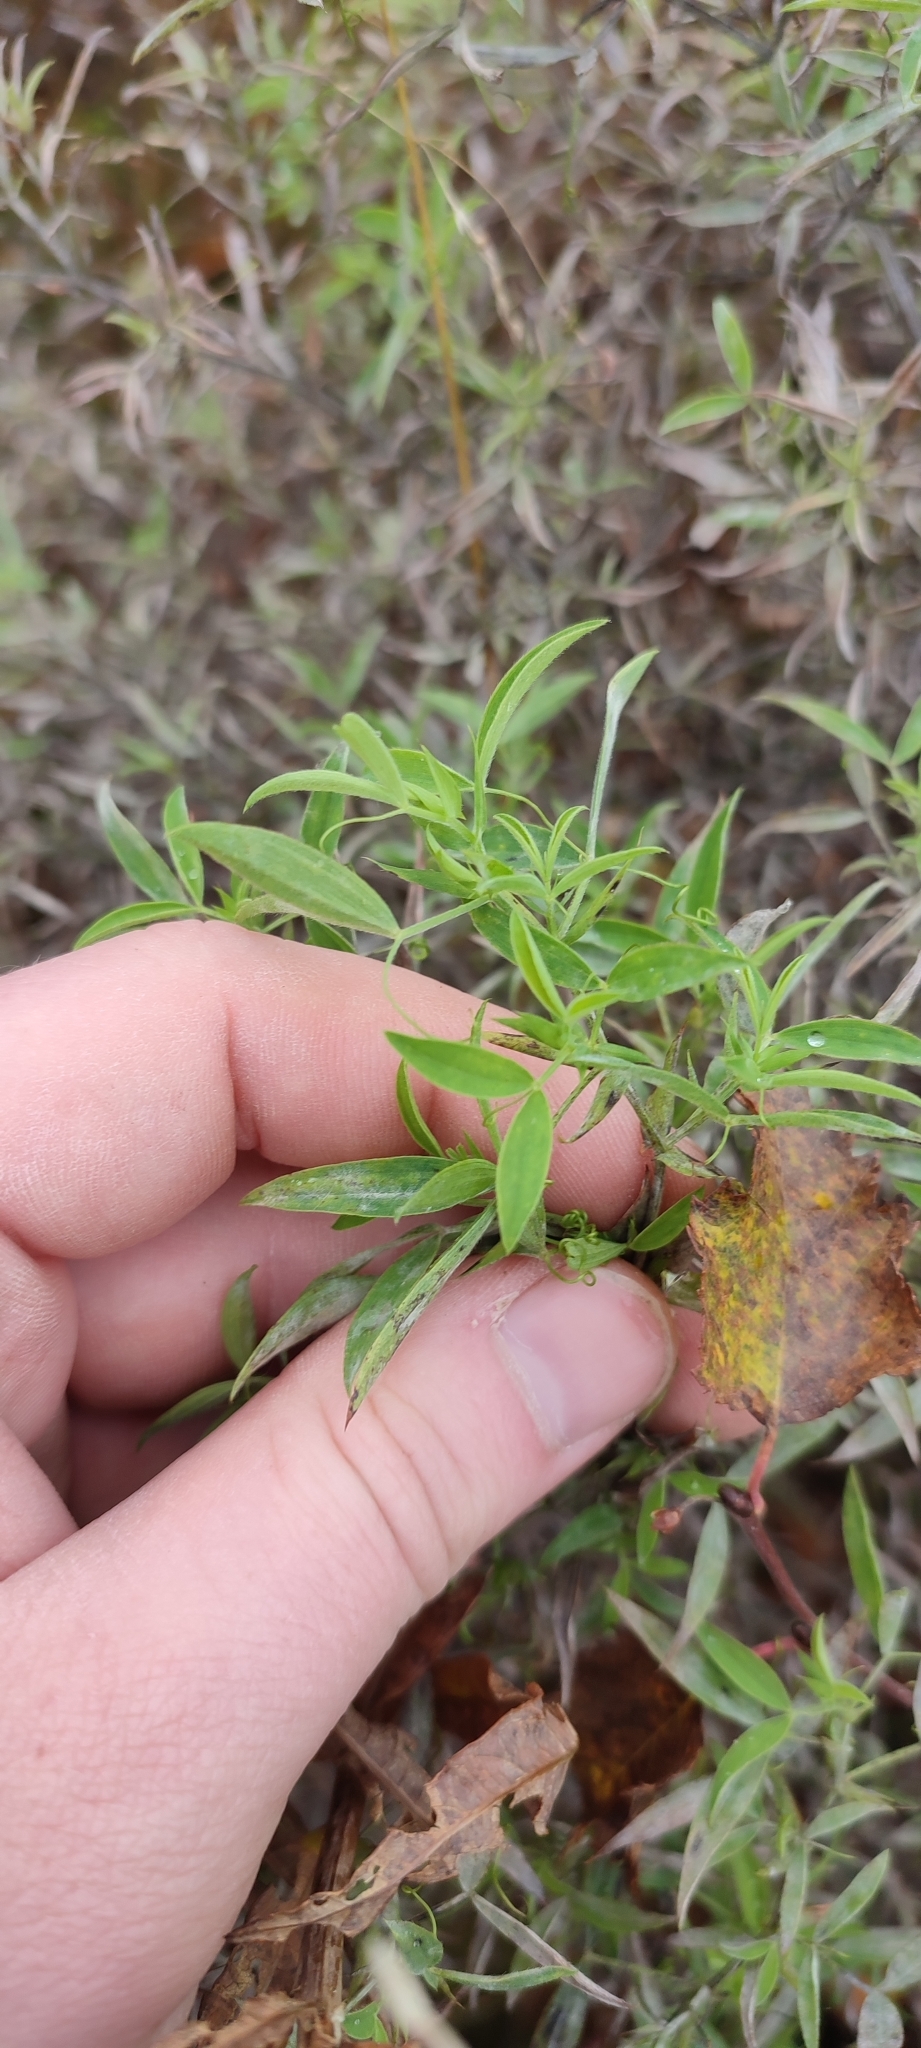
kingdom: Plantae
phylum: Tracheophyta
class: Magnoliopsida
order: Fabales
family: Fabaceae
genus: Lathyrus
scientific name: Lathyrus pratensis
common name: Meadow vetchling
